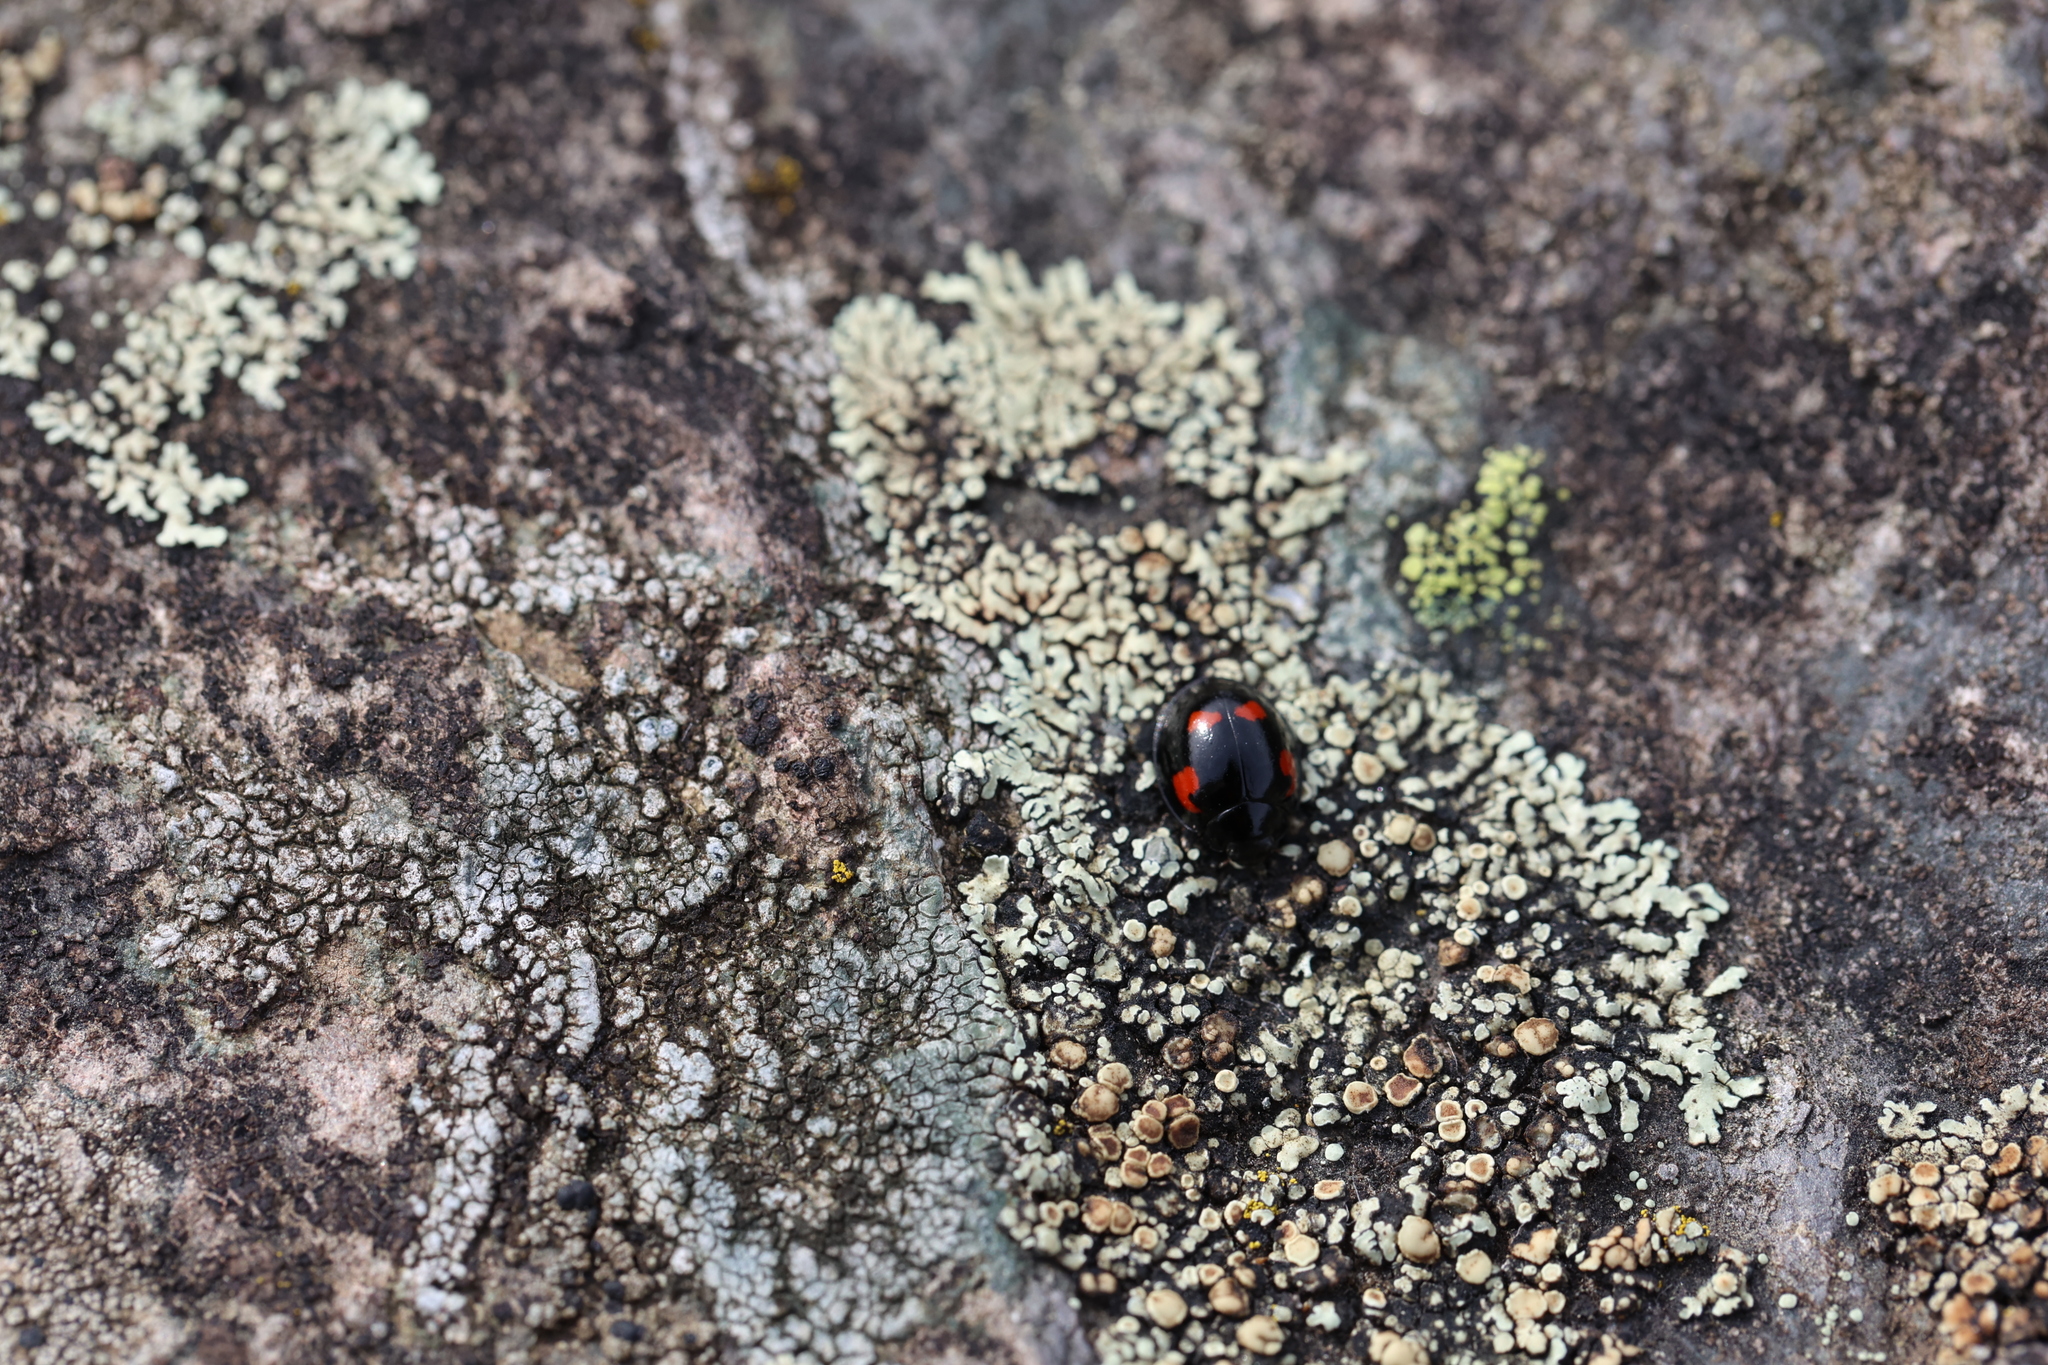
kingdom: Animalia
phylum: Arthropoda
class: Insecta
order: Coleoptera
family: Coccinellidae
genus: Brumus
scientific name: Brumus quadripustulatus
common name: Ladybird beetle
